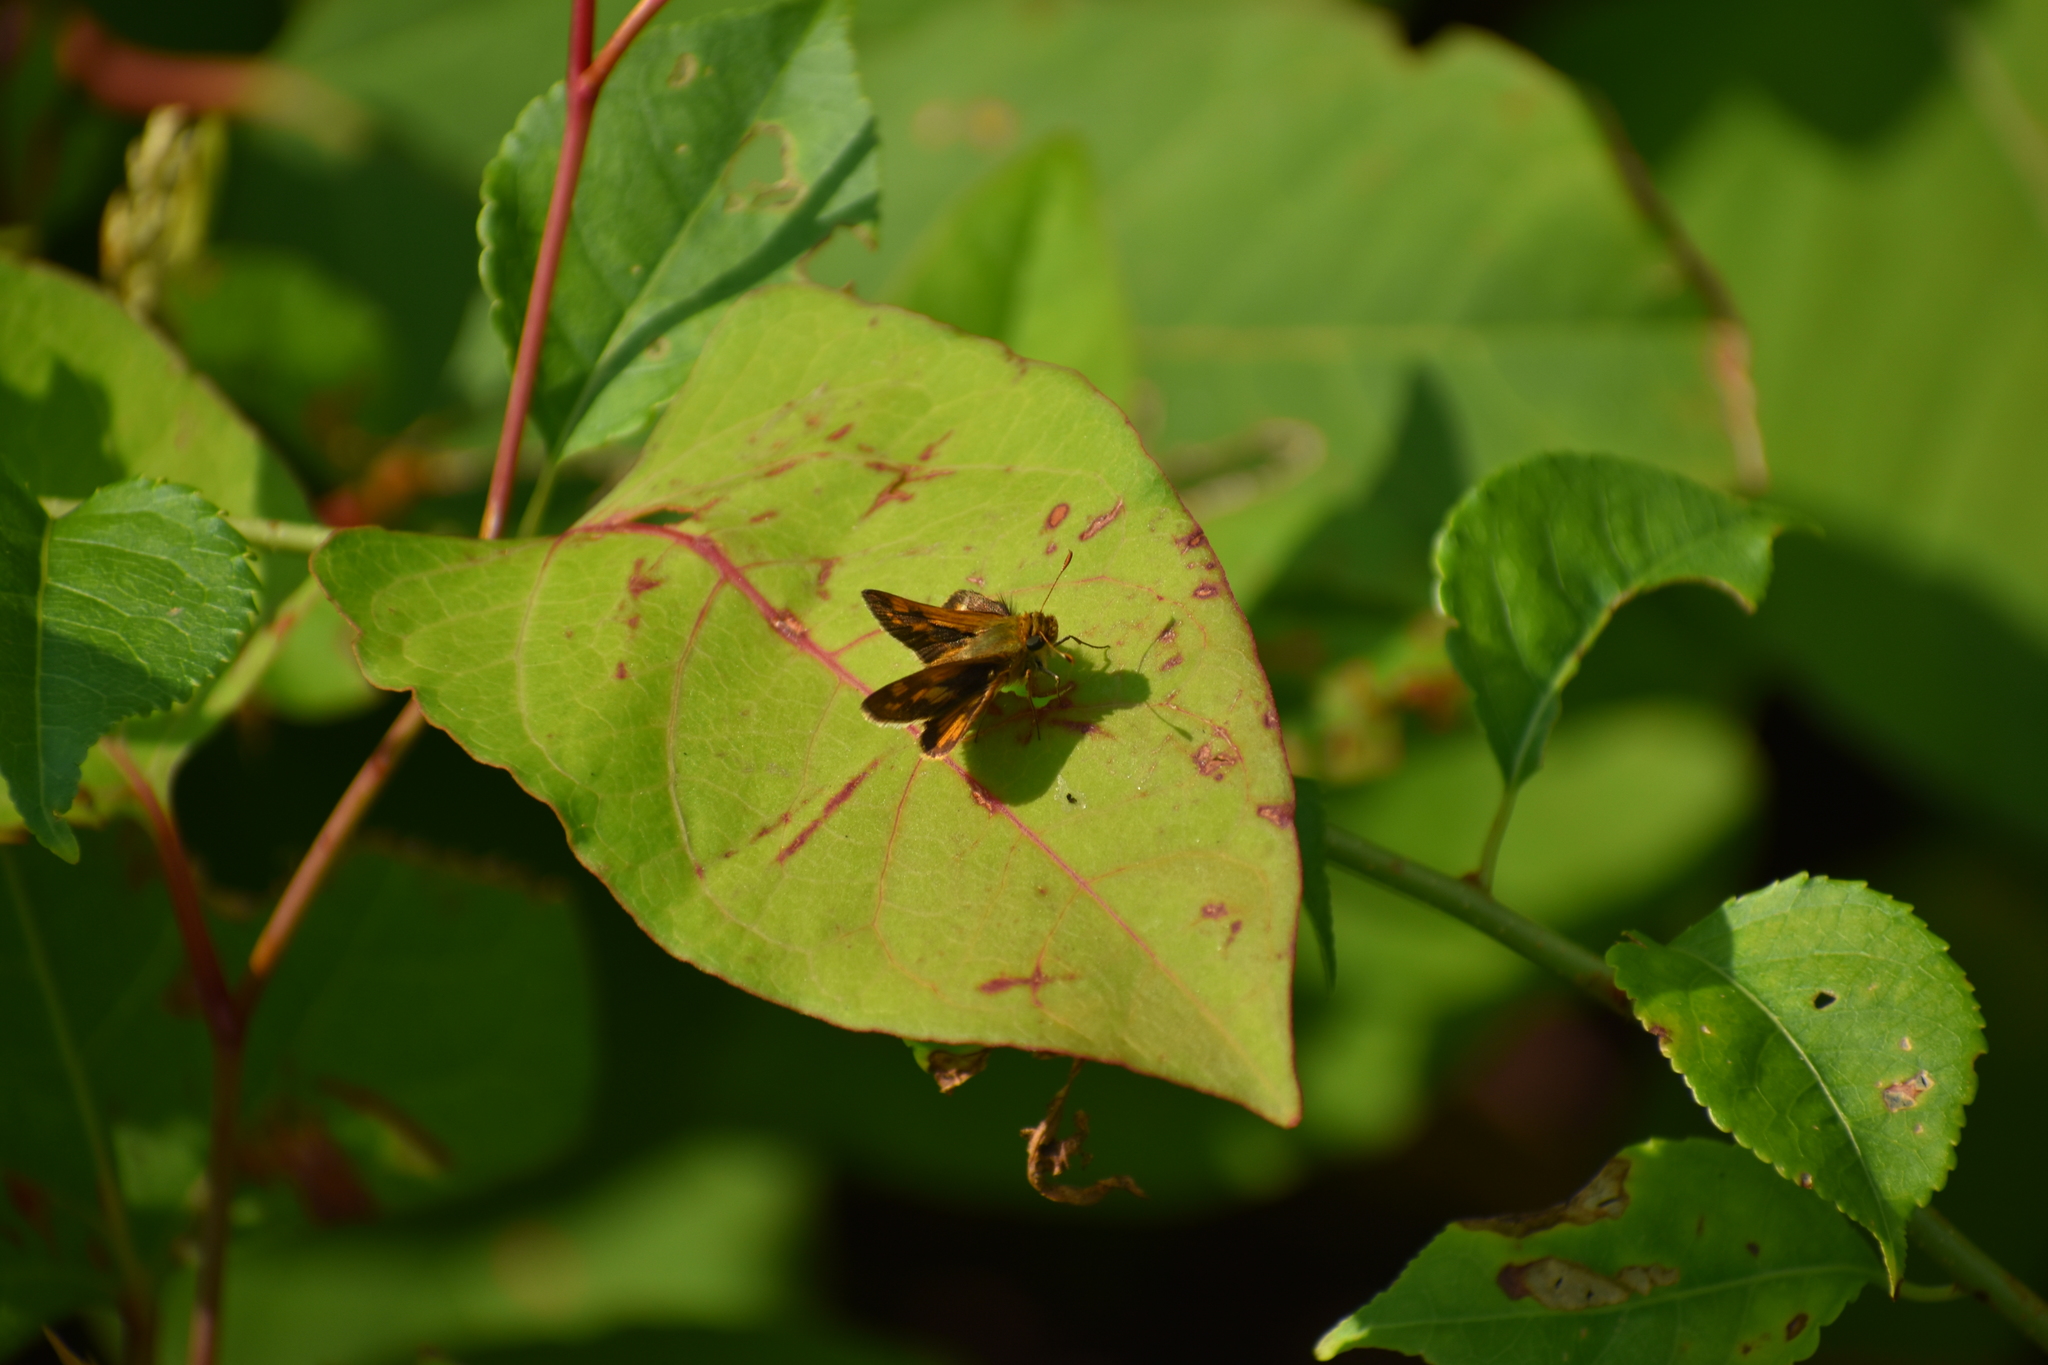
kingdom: Animalia
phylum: Arthropoda
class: Insecta
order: Lepidoptera
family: Hesperiidae
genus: Polites
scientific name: Polites coras
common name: Peck's skipper
